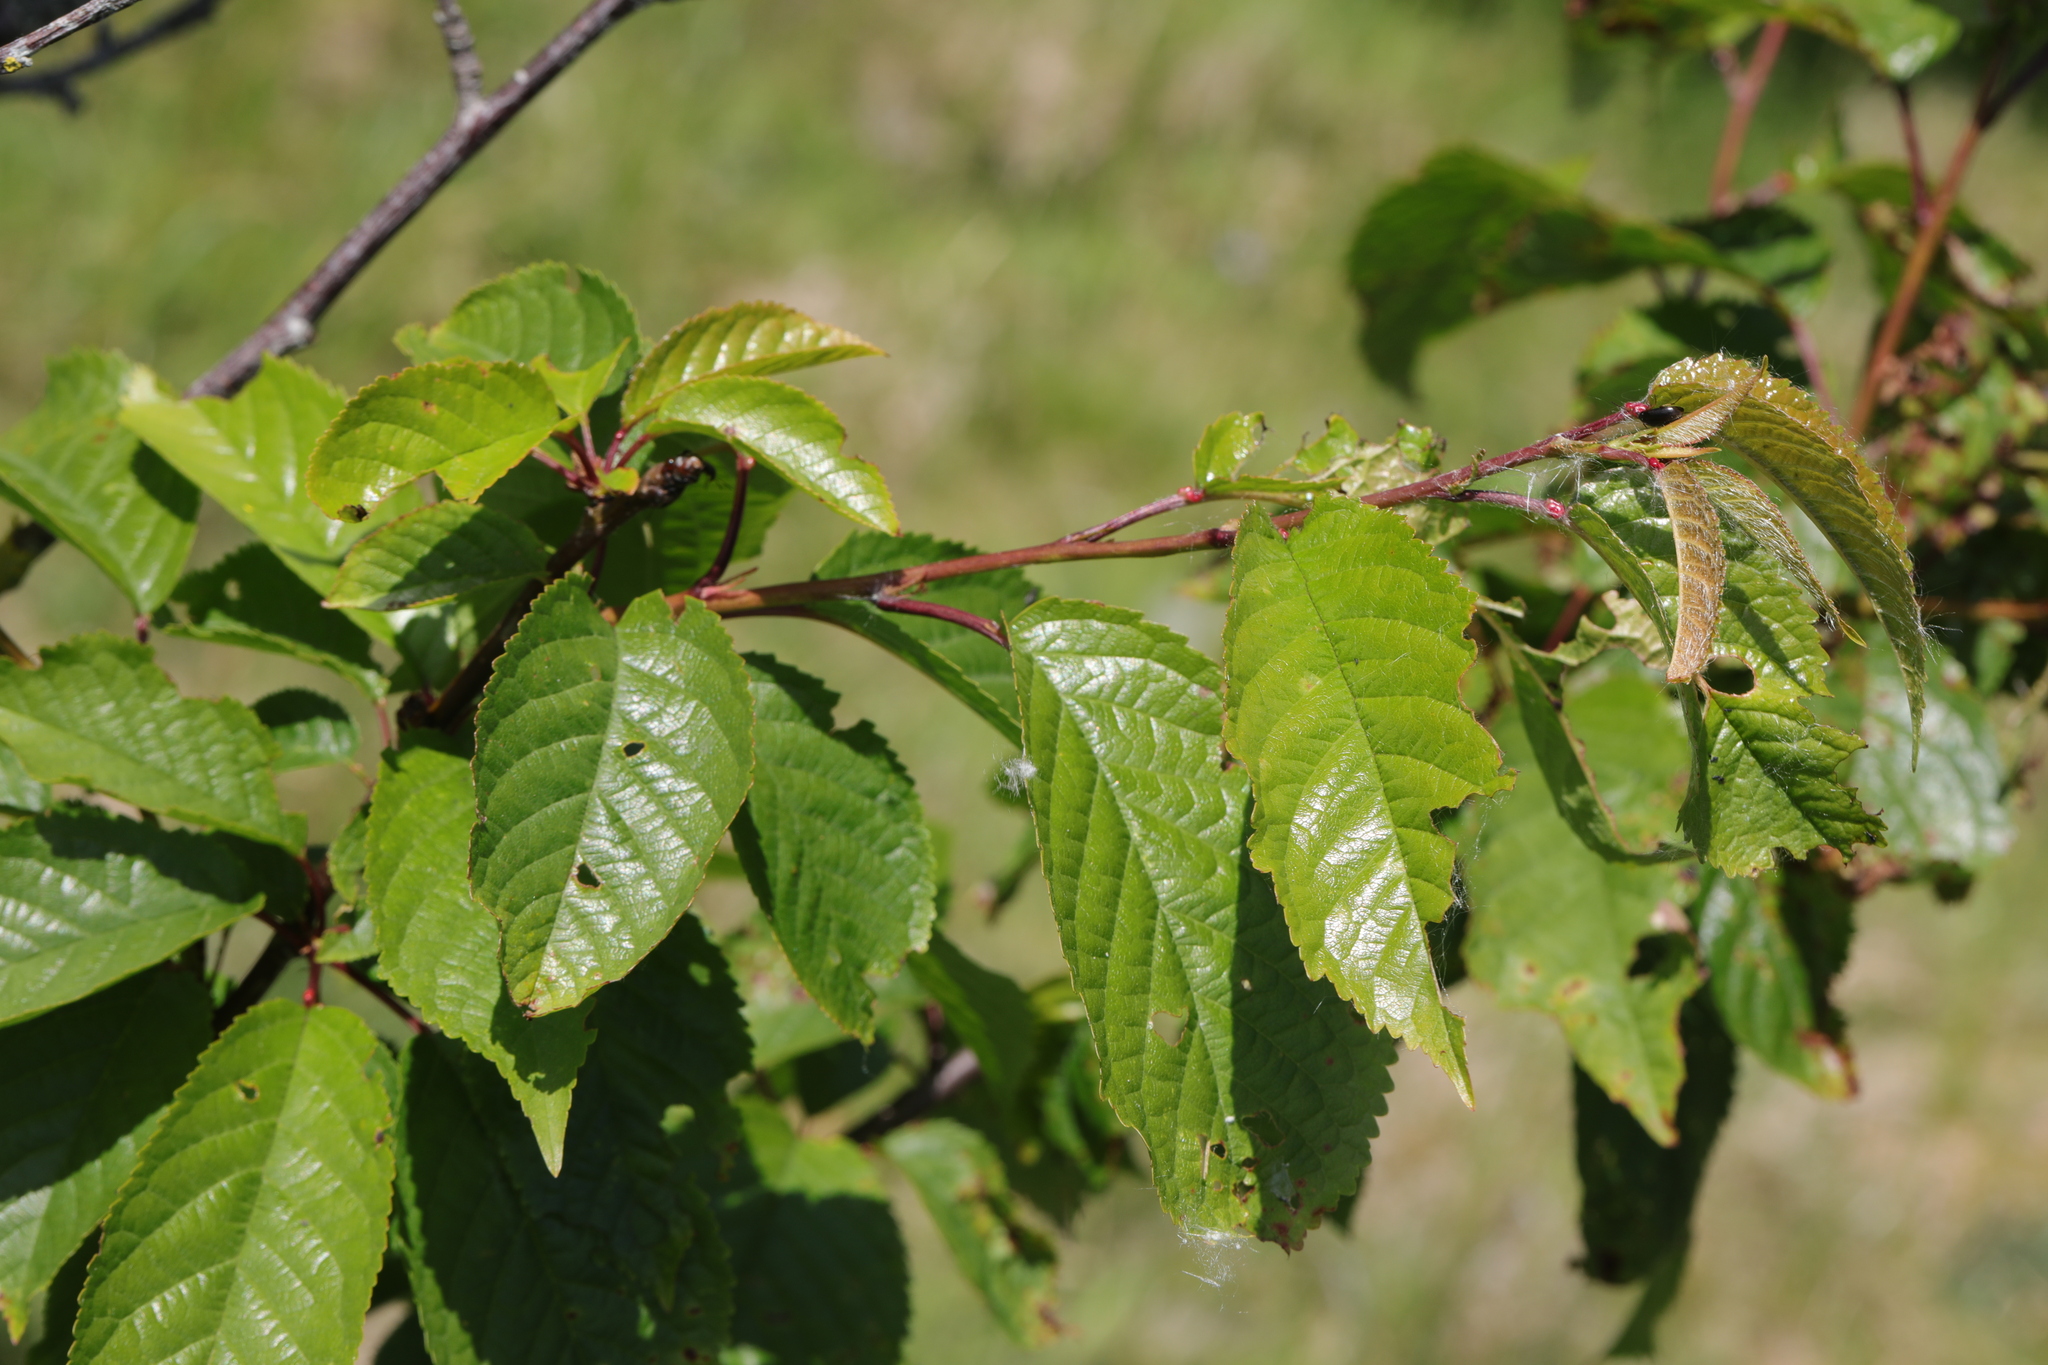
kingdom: Plantae
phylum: Tracheophyta
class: Magnoliopsida
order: Rosales
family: Rosaceae
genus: Prunus
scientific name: Prunus avium
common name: Sweet cherry
